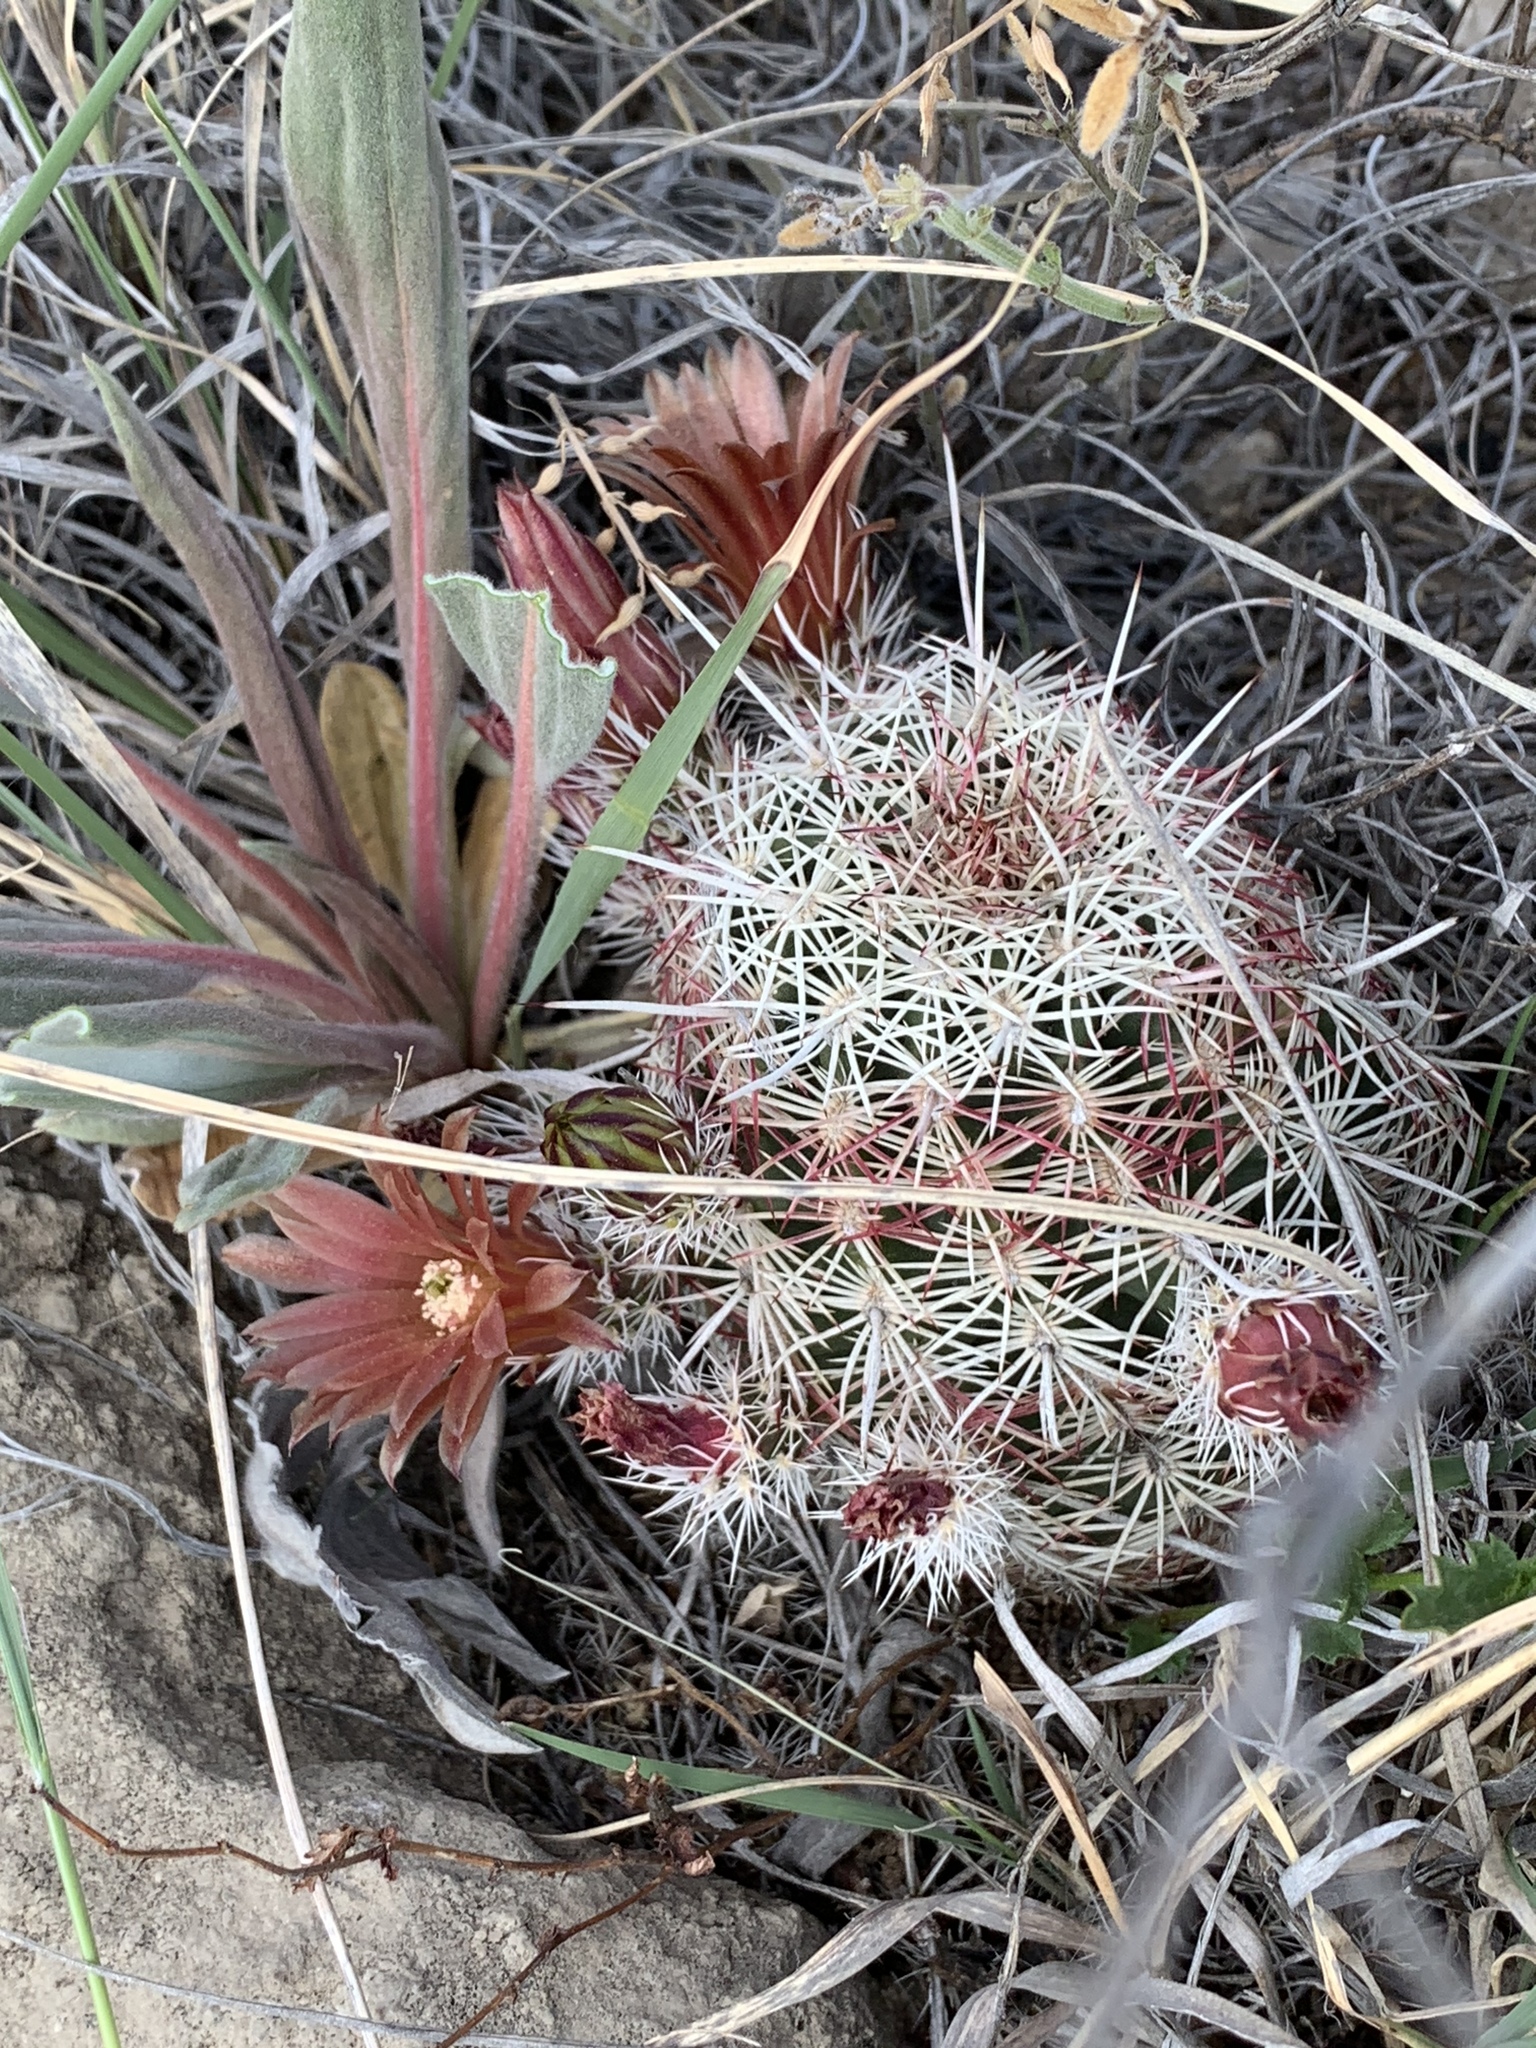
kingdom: Plantae
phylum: Tracheophyta
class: Magnoliopsida
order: Caryophyllales
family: Cactaceae
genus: Echinocereus
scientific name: Echinocereus viridiflorus
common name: Nylon hedgehog cactus
